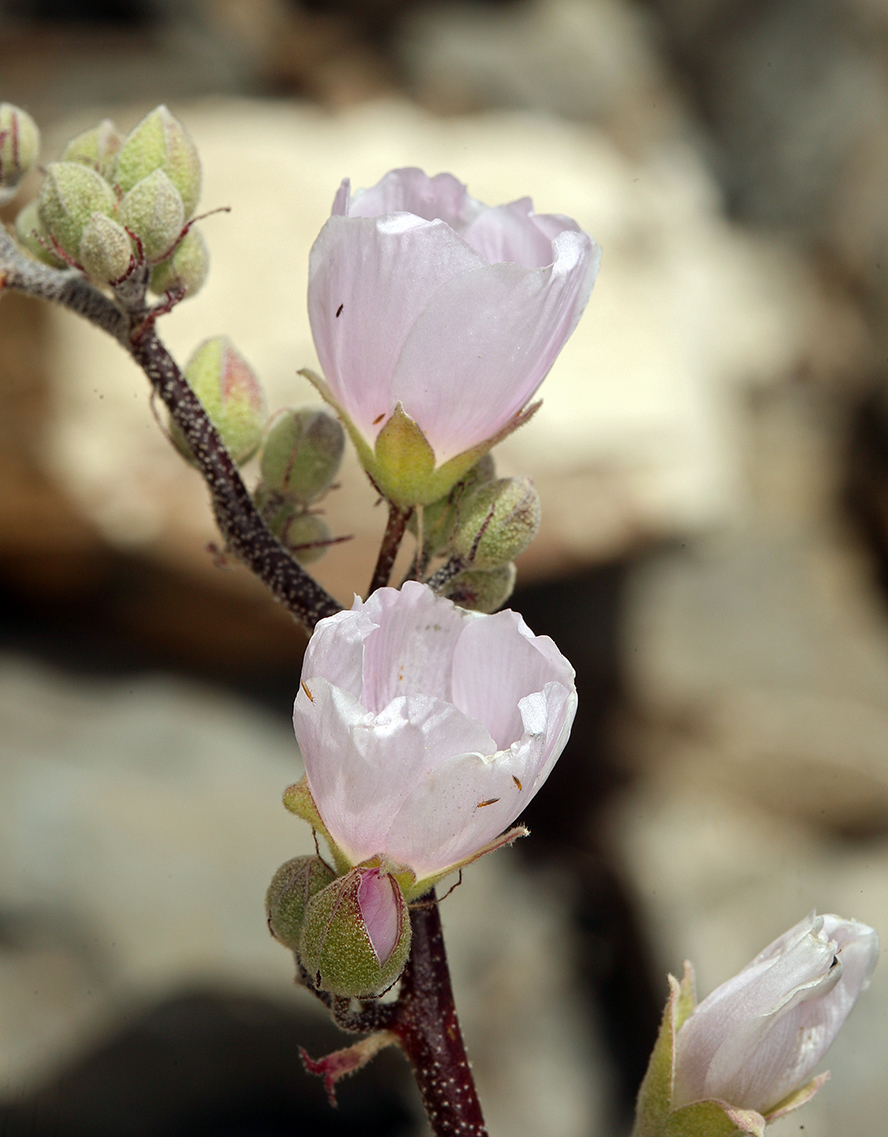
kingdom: Plantae
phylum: Tracheophyta
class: Magnoliopsida
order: Malvales
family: Malvaceae
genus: Sphaeralcea
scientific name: Sphaeralcea ambigua
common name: Apricot globe-mallow
